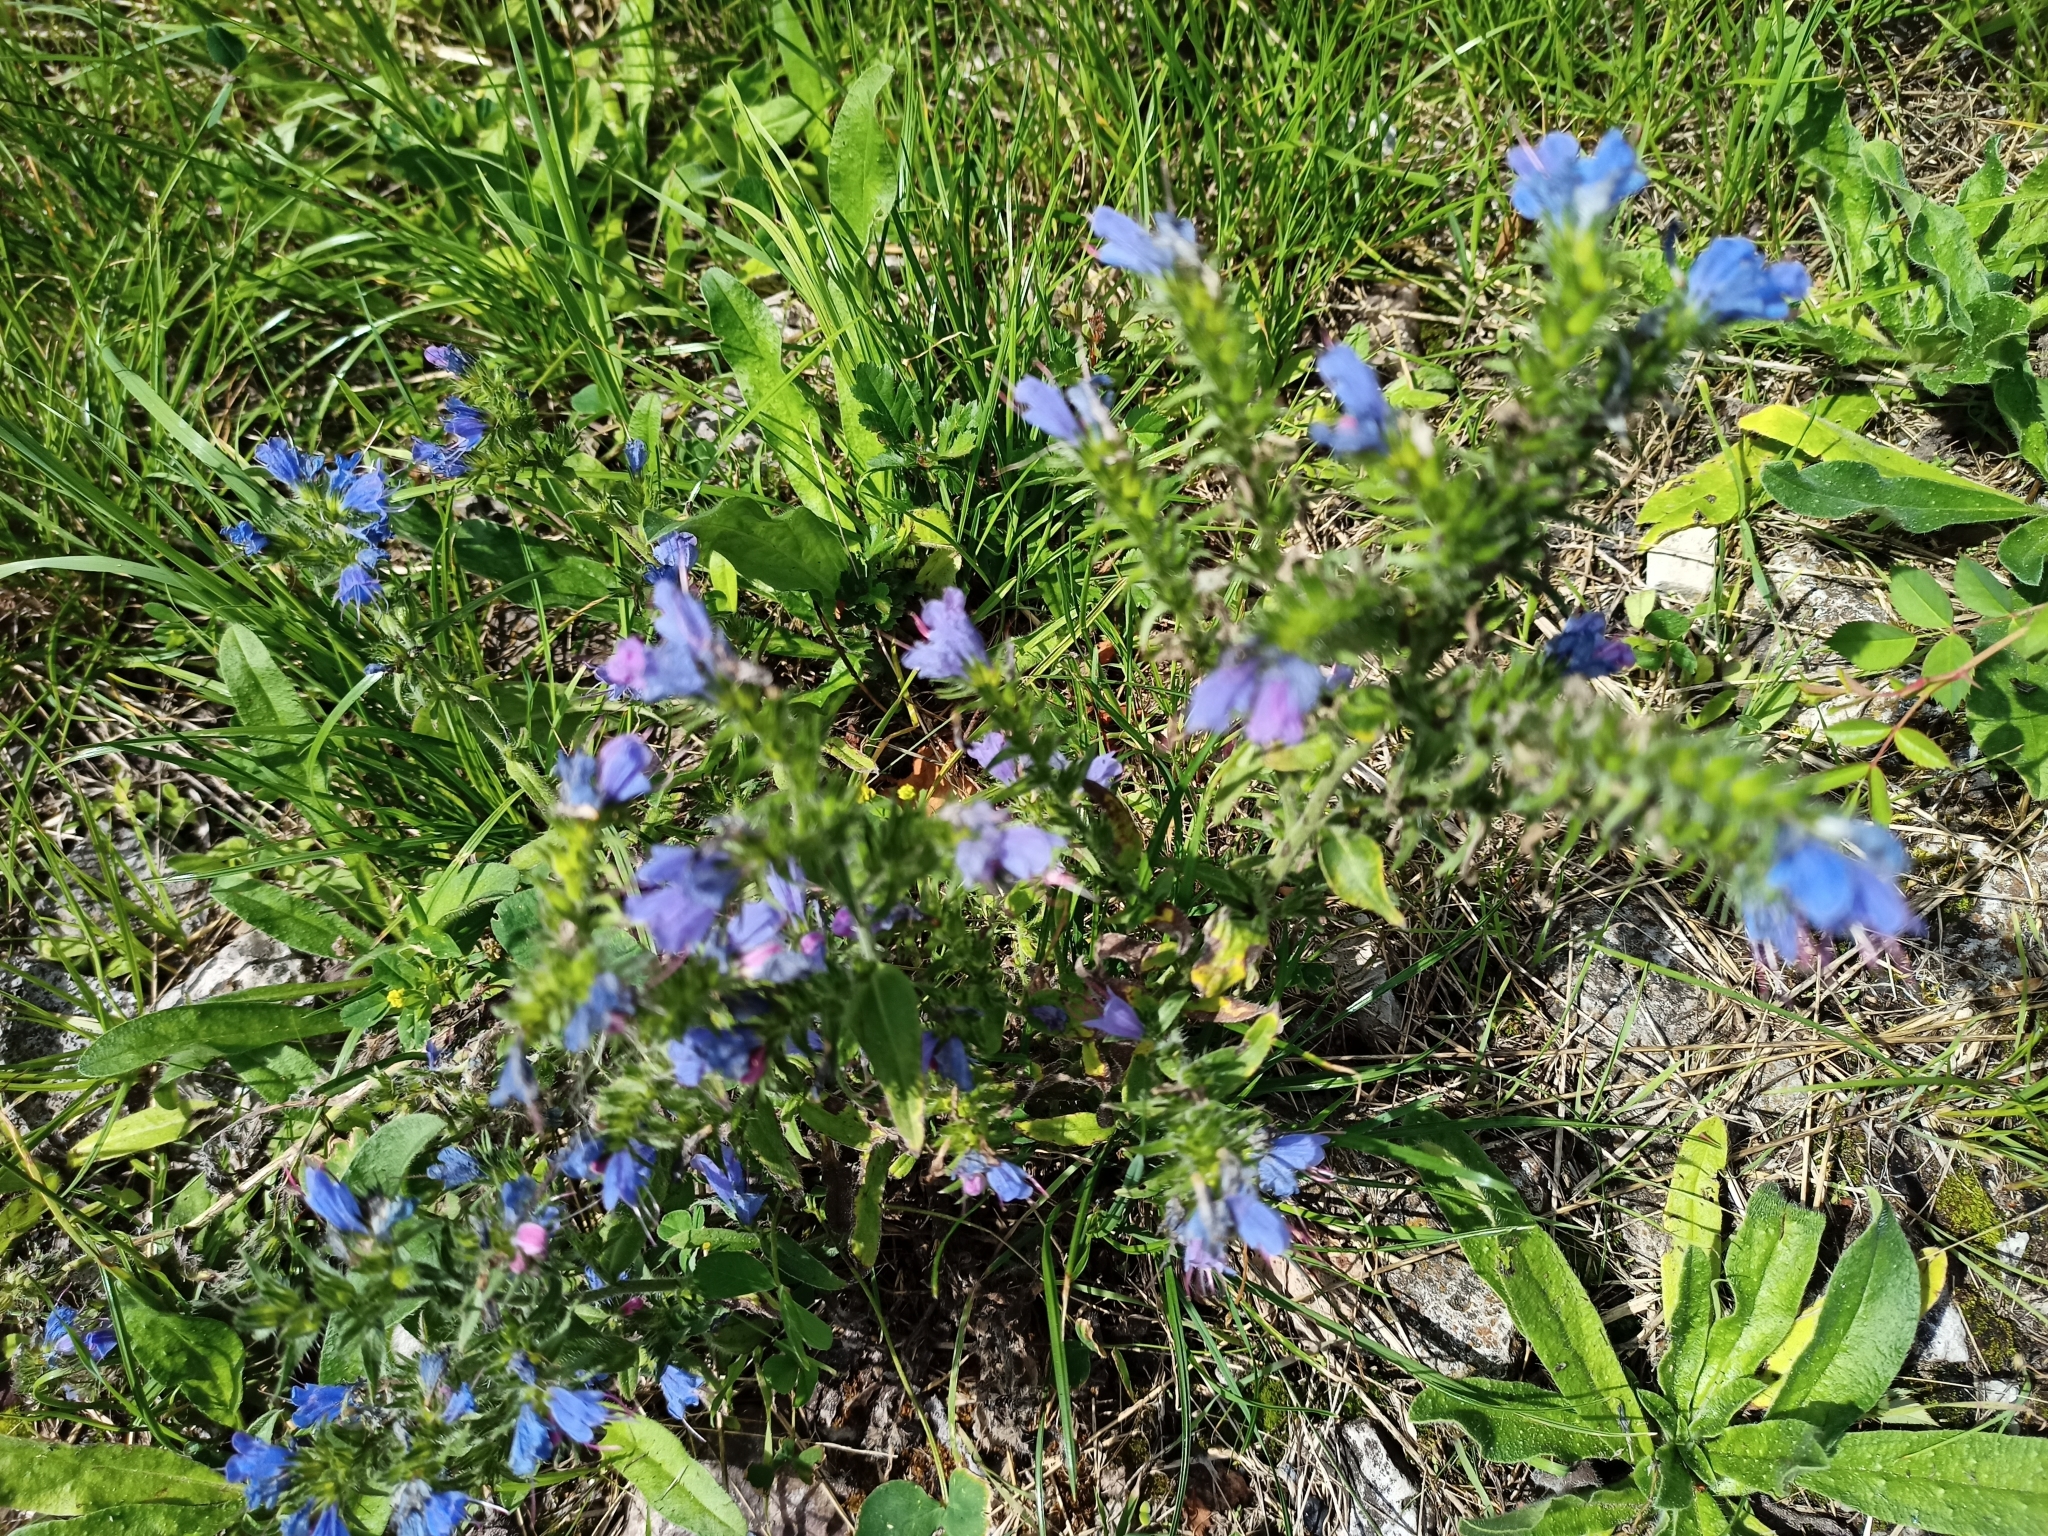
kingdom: Plantae
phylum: Tracheophyta
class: Magnoliopsida
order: Boraginales
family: Boraginaceae
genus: Echium
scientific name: Echium vulgare
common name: Common viper's bugloss
